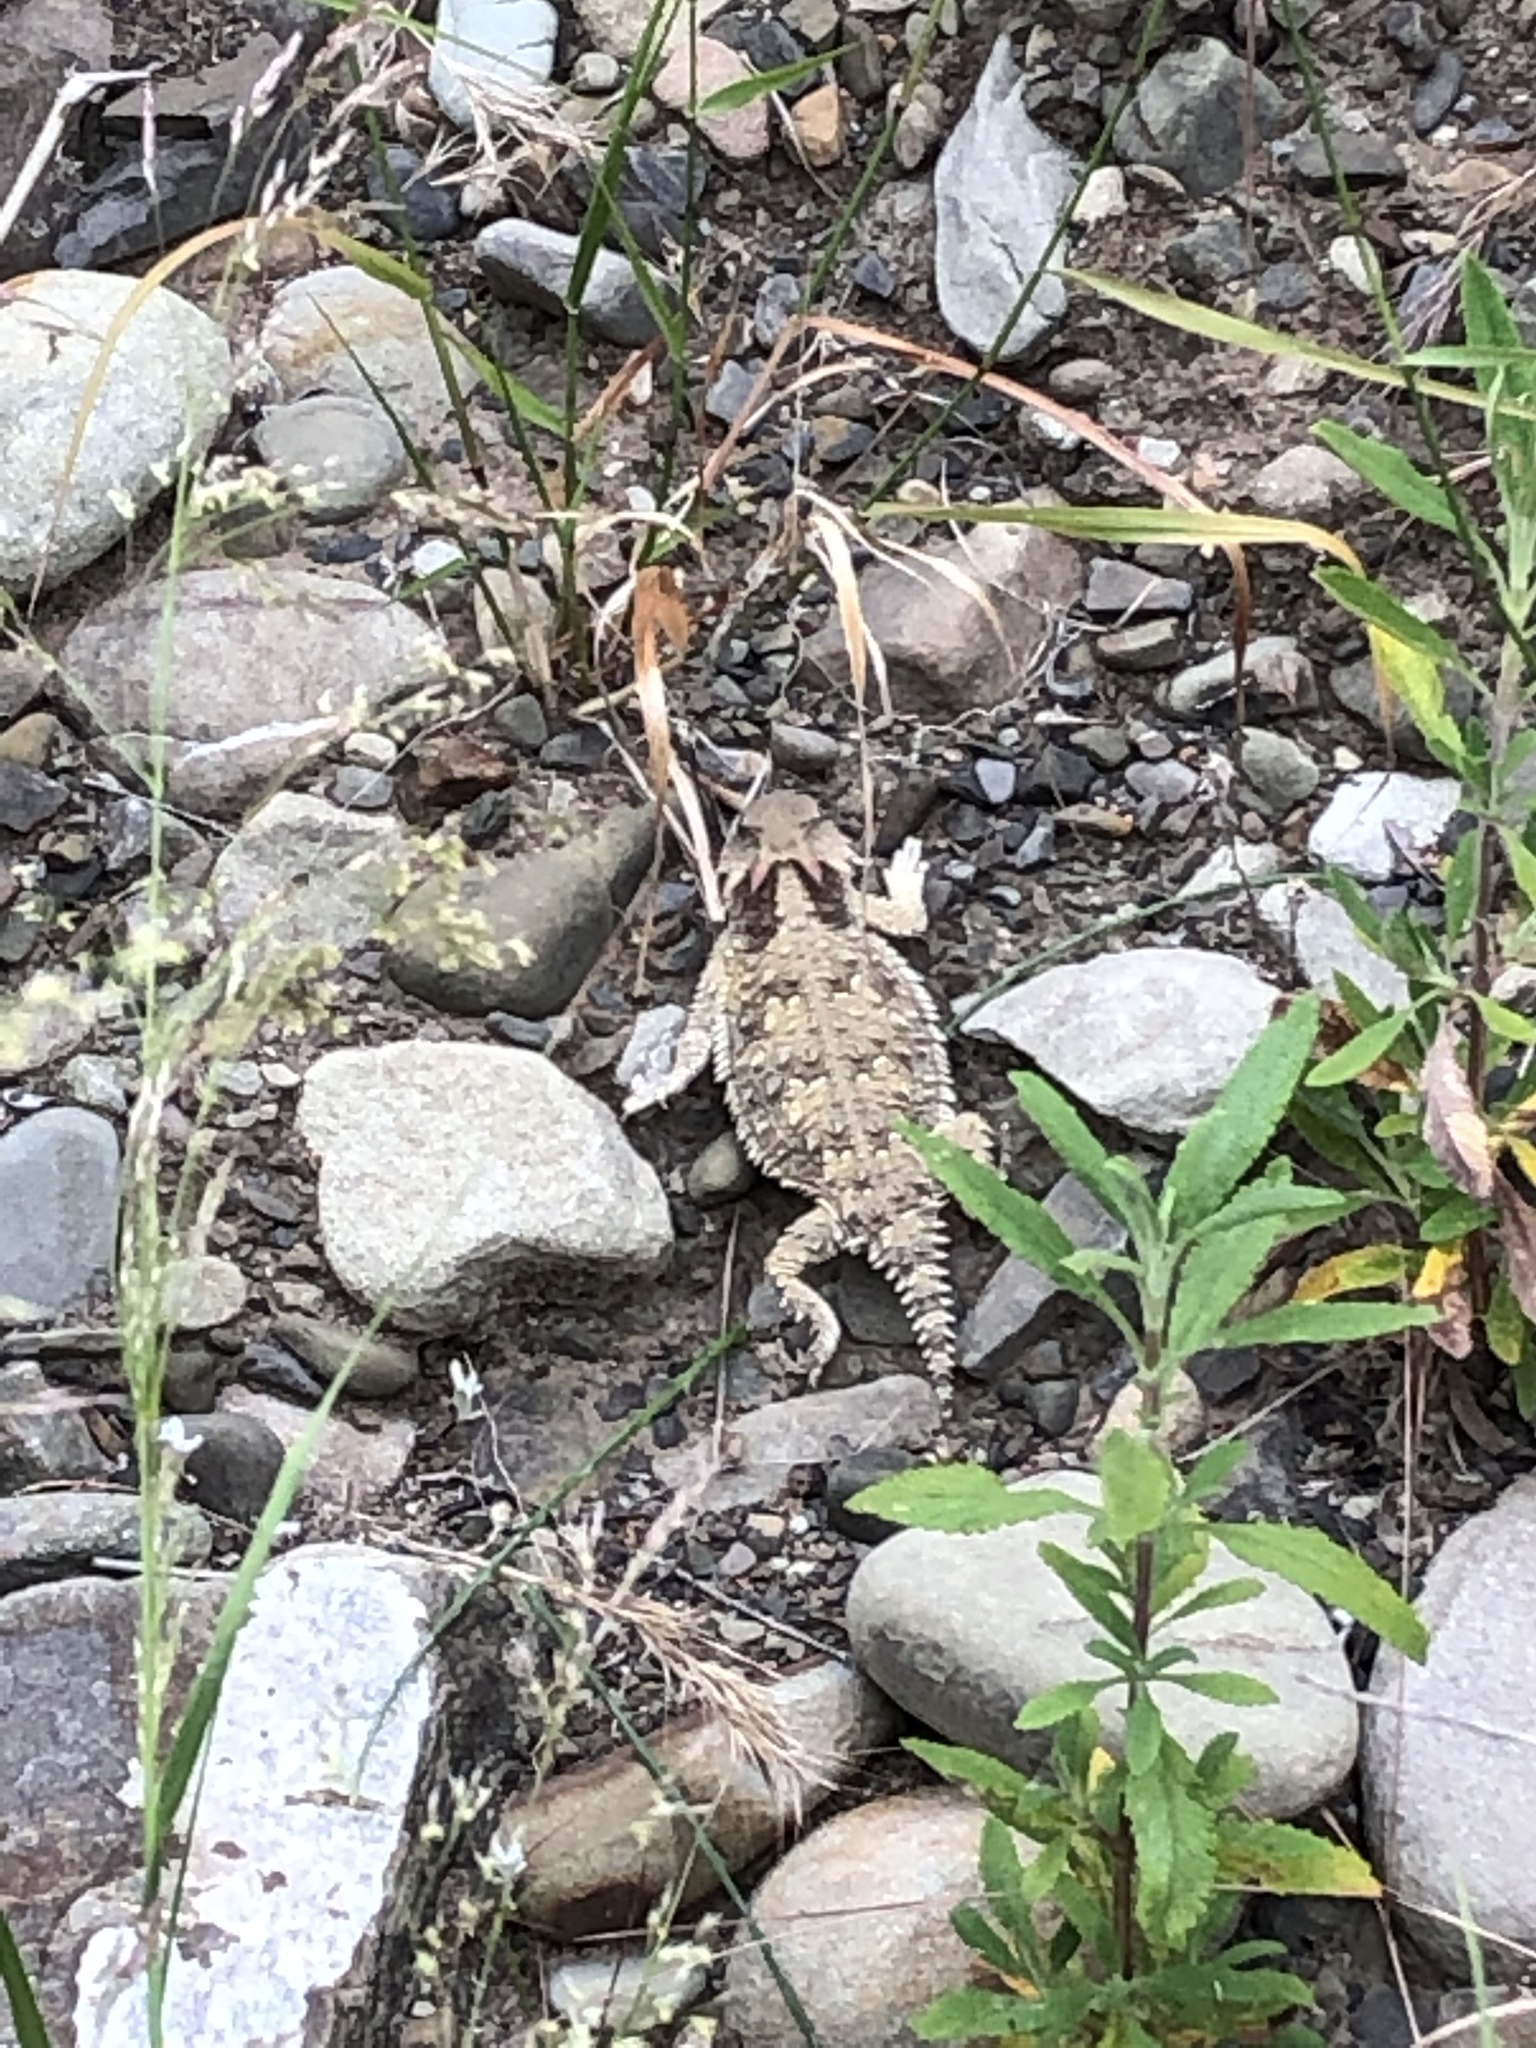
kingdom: Animalia
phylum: Chordata
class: Squamata
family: Phrynosomatidae
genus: Phrynosoma
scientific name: Phrynosoma blainvillii
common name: San diego horned lizard
